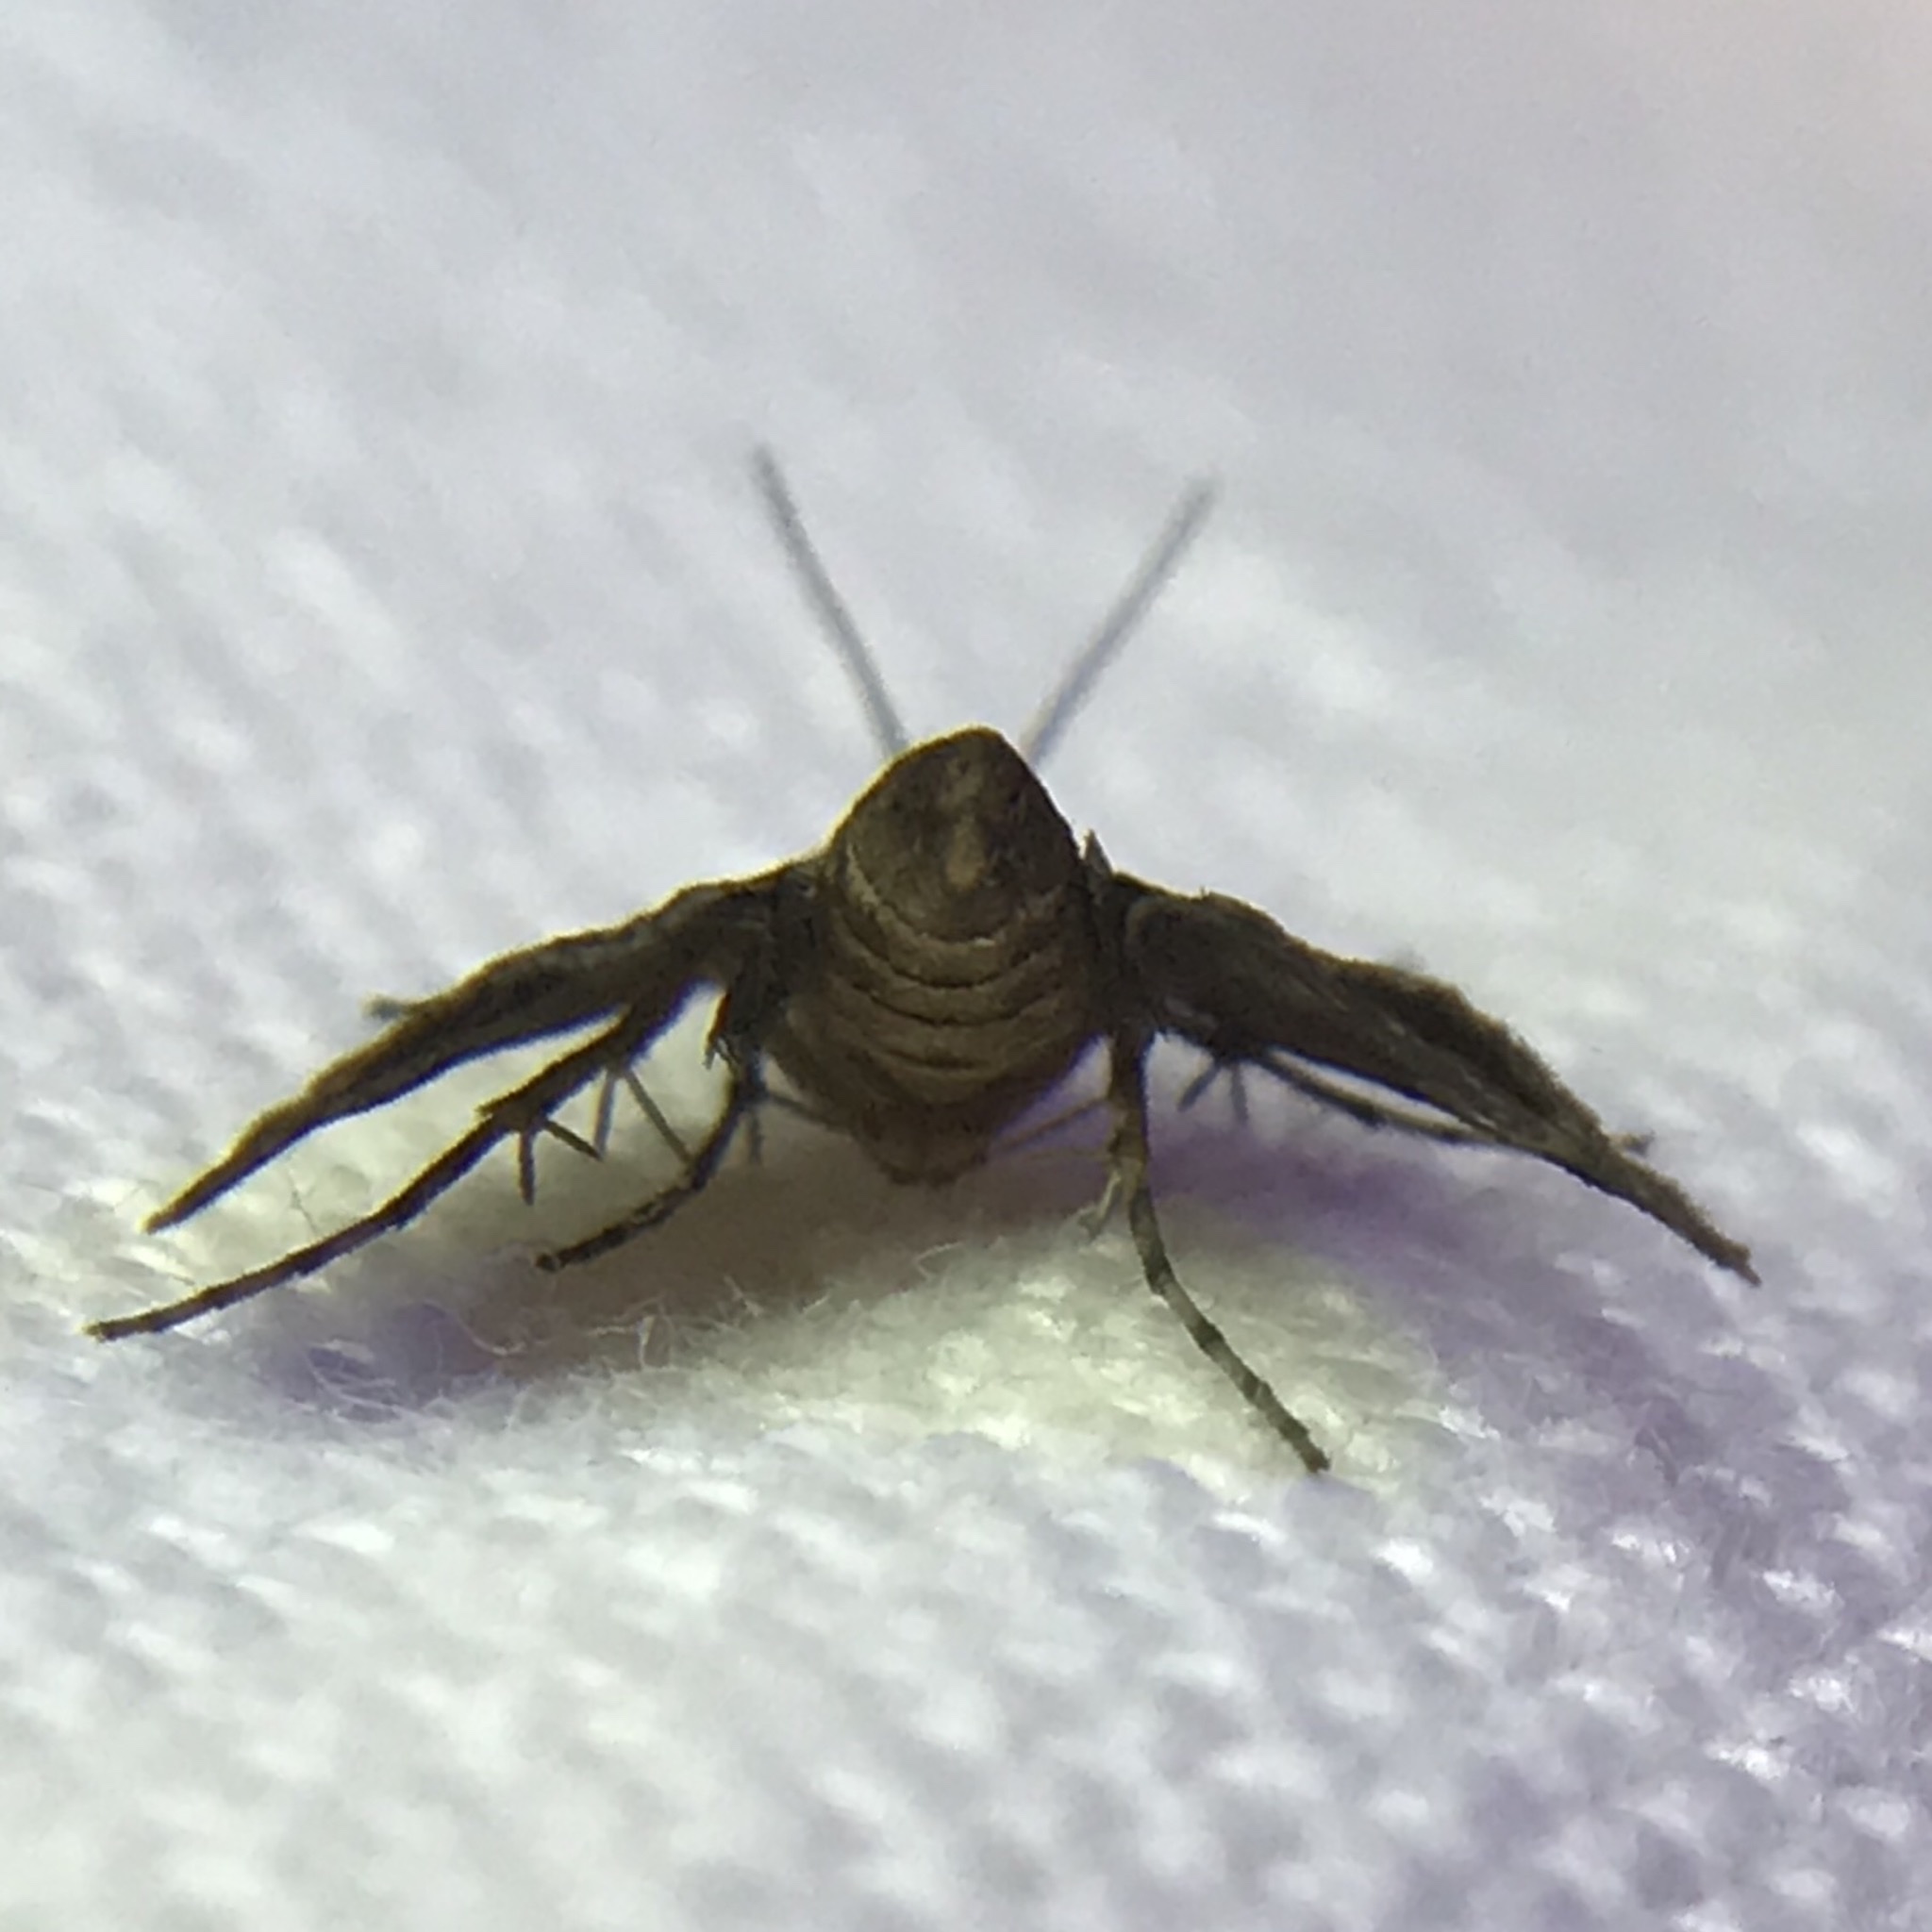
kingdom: Animalia
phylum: Arthropoda
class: Insecta
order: Lepidoptera
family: Crambidae
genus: Elophila
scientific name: Elophila obliteralis
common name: Waterlily leafcutter moth
